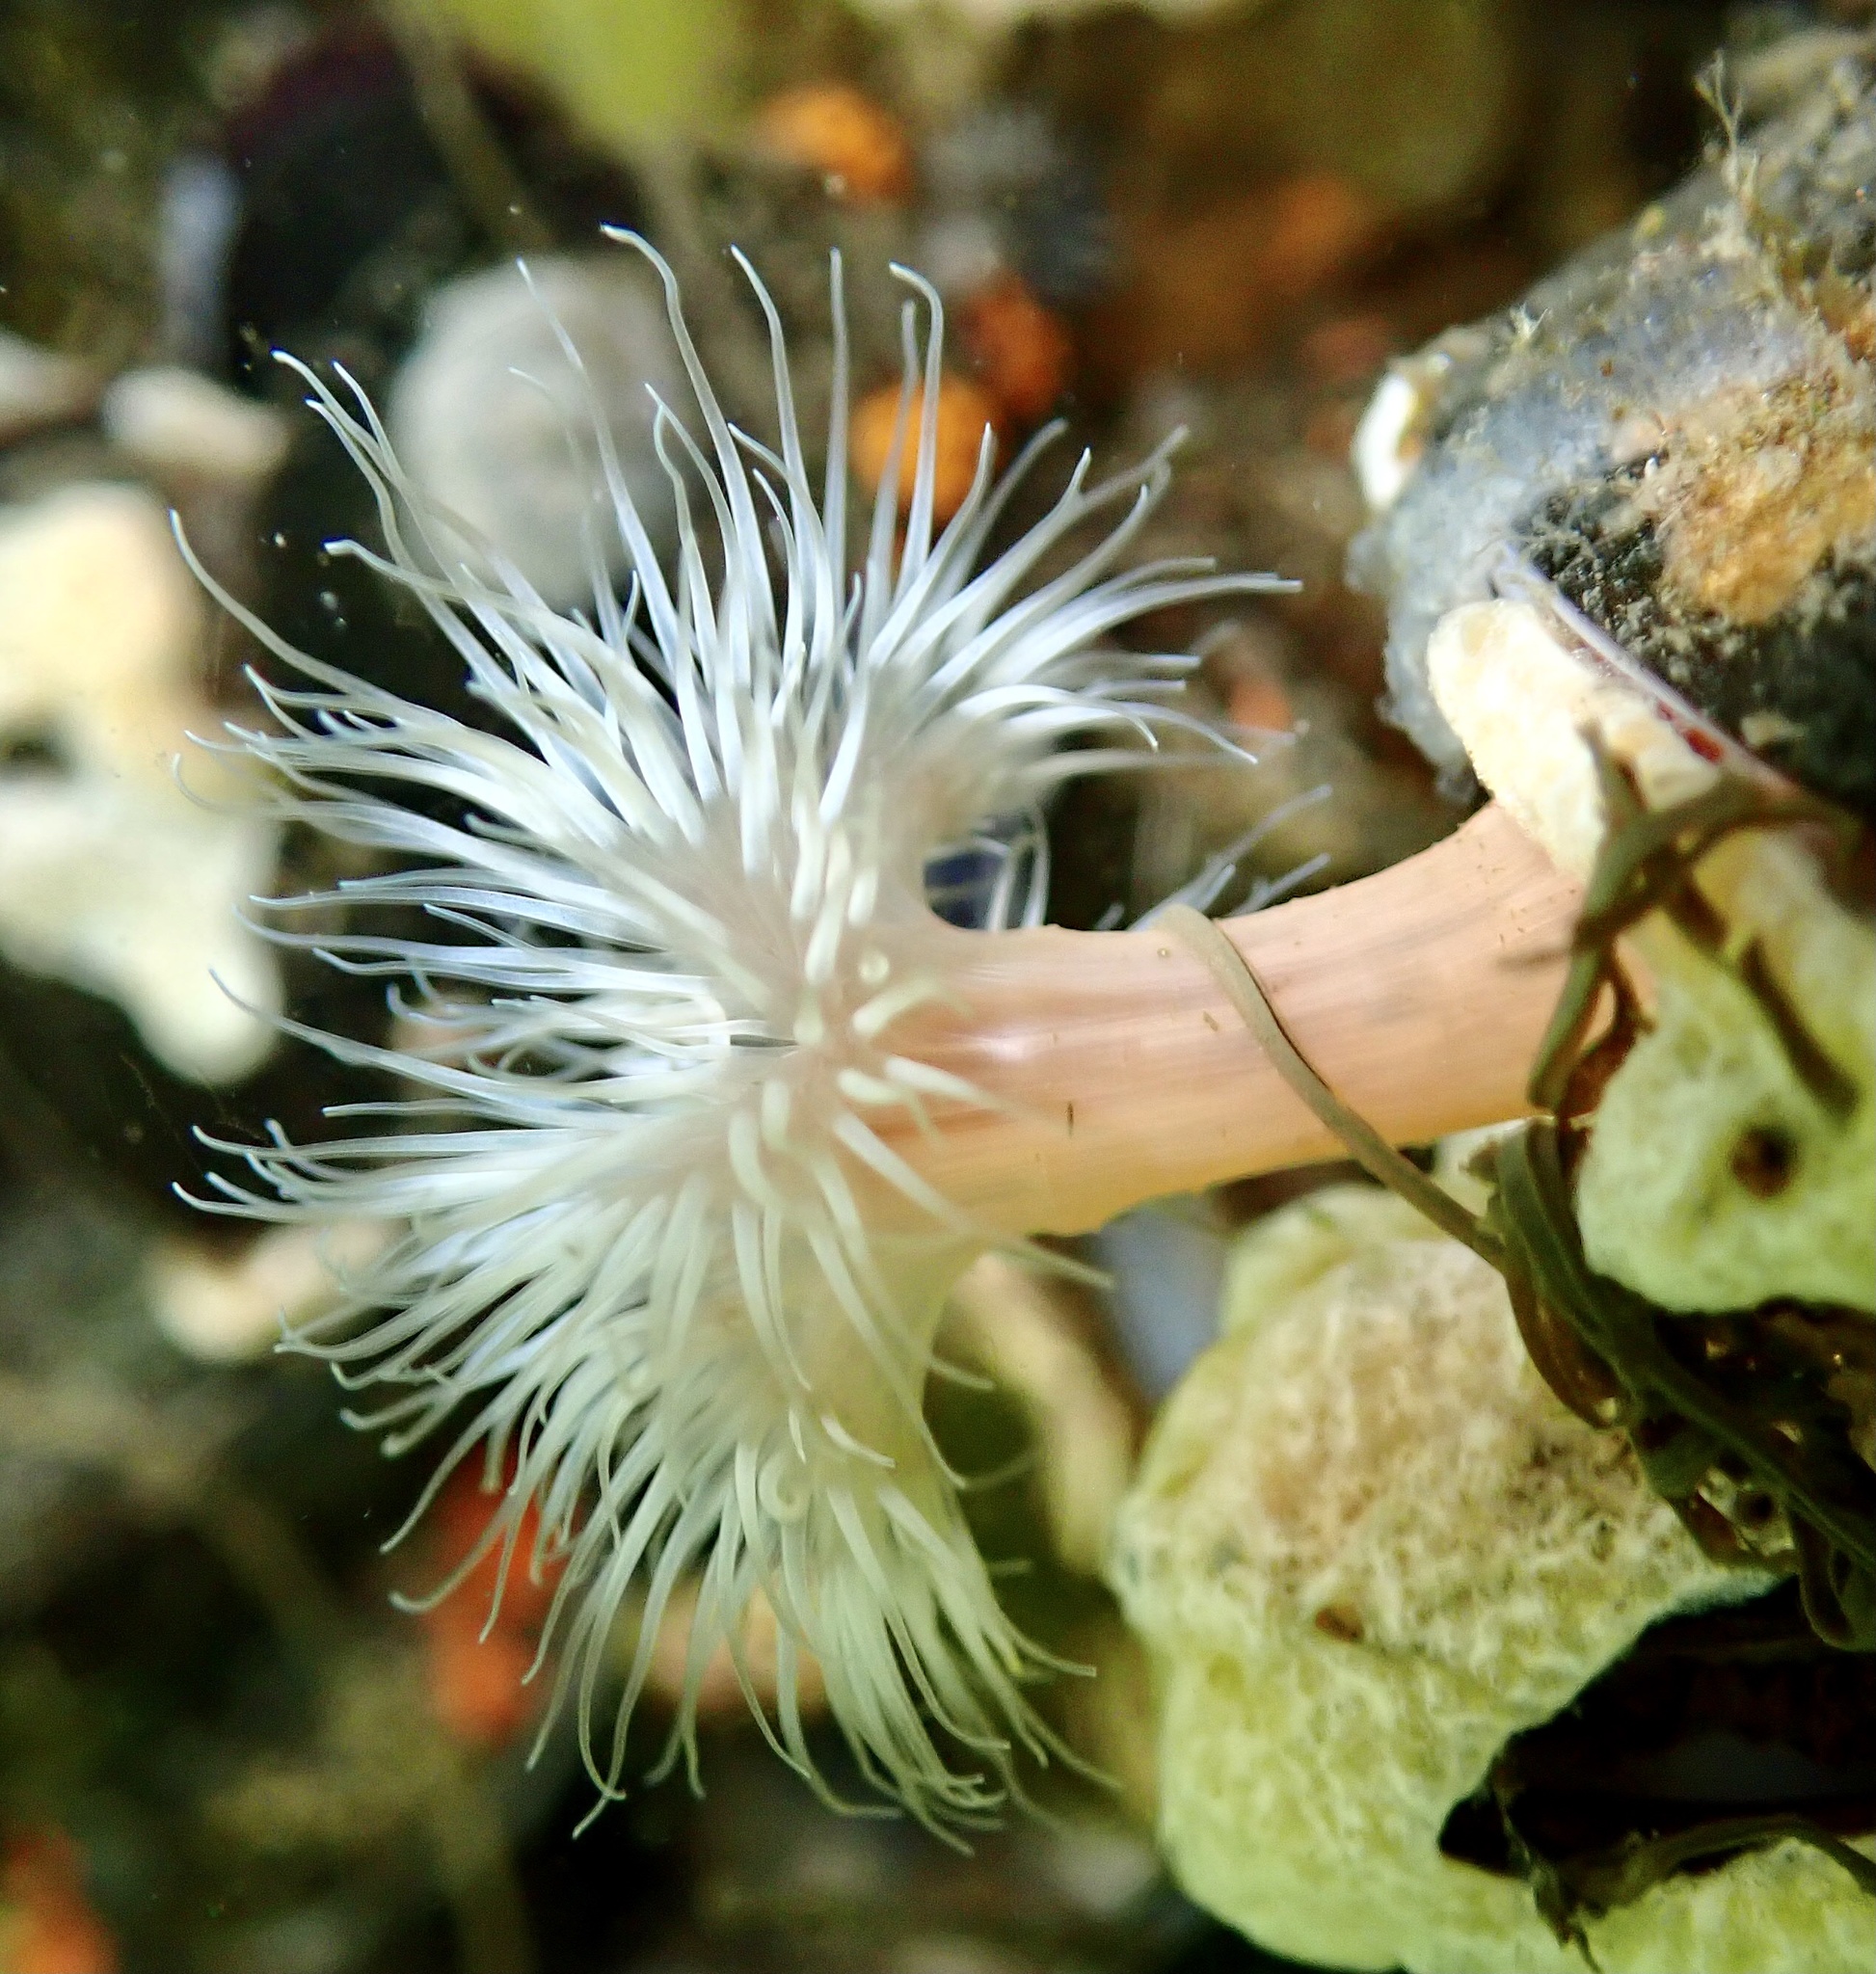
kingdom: Animalia
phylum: Cnidaria
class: Anthozoa
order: Actiniaria
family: Metridiidae
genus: Metridium
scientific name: Metridium senile
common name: Clonal plumose anemone
